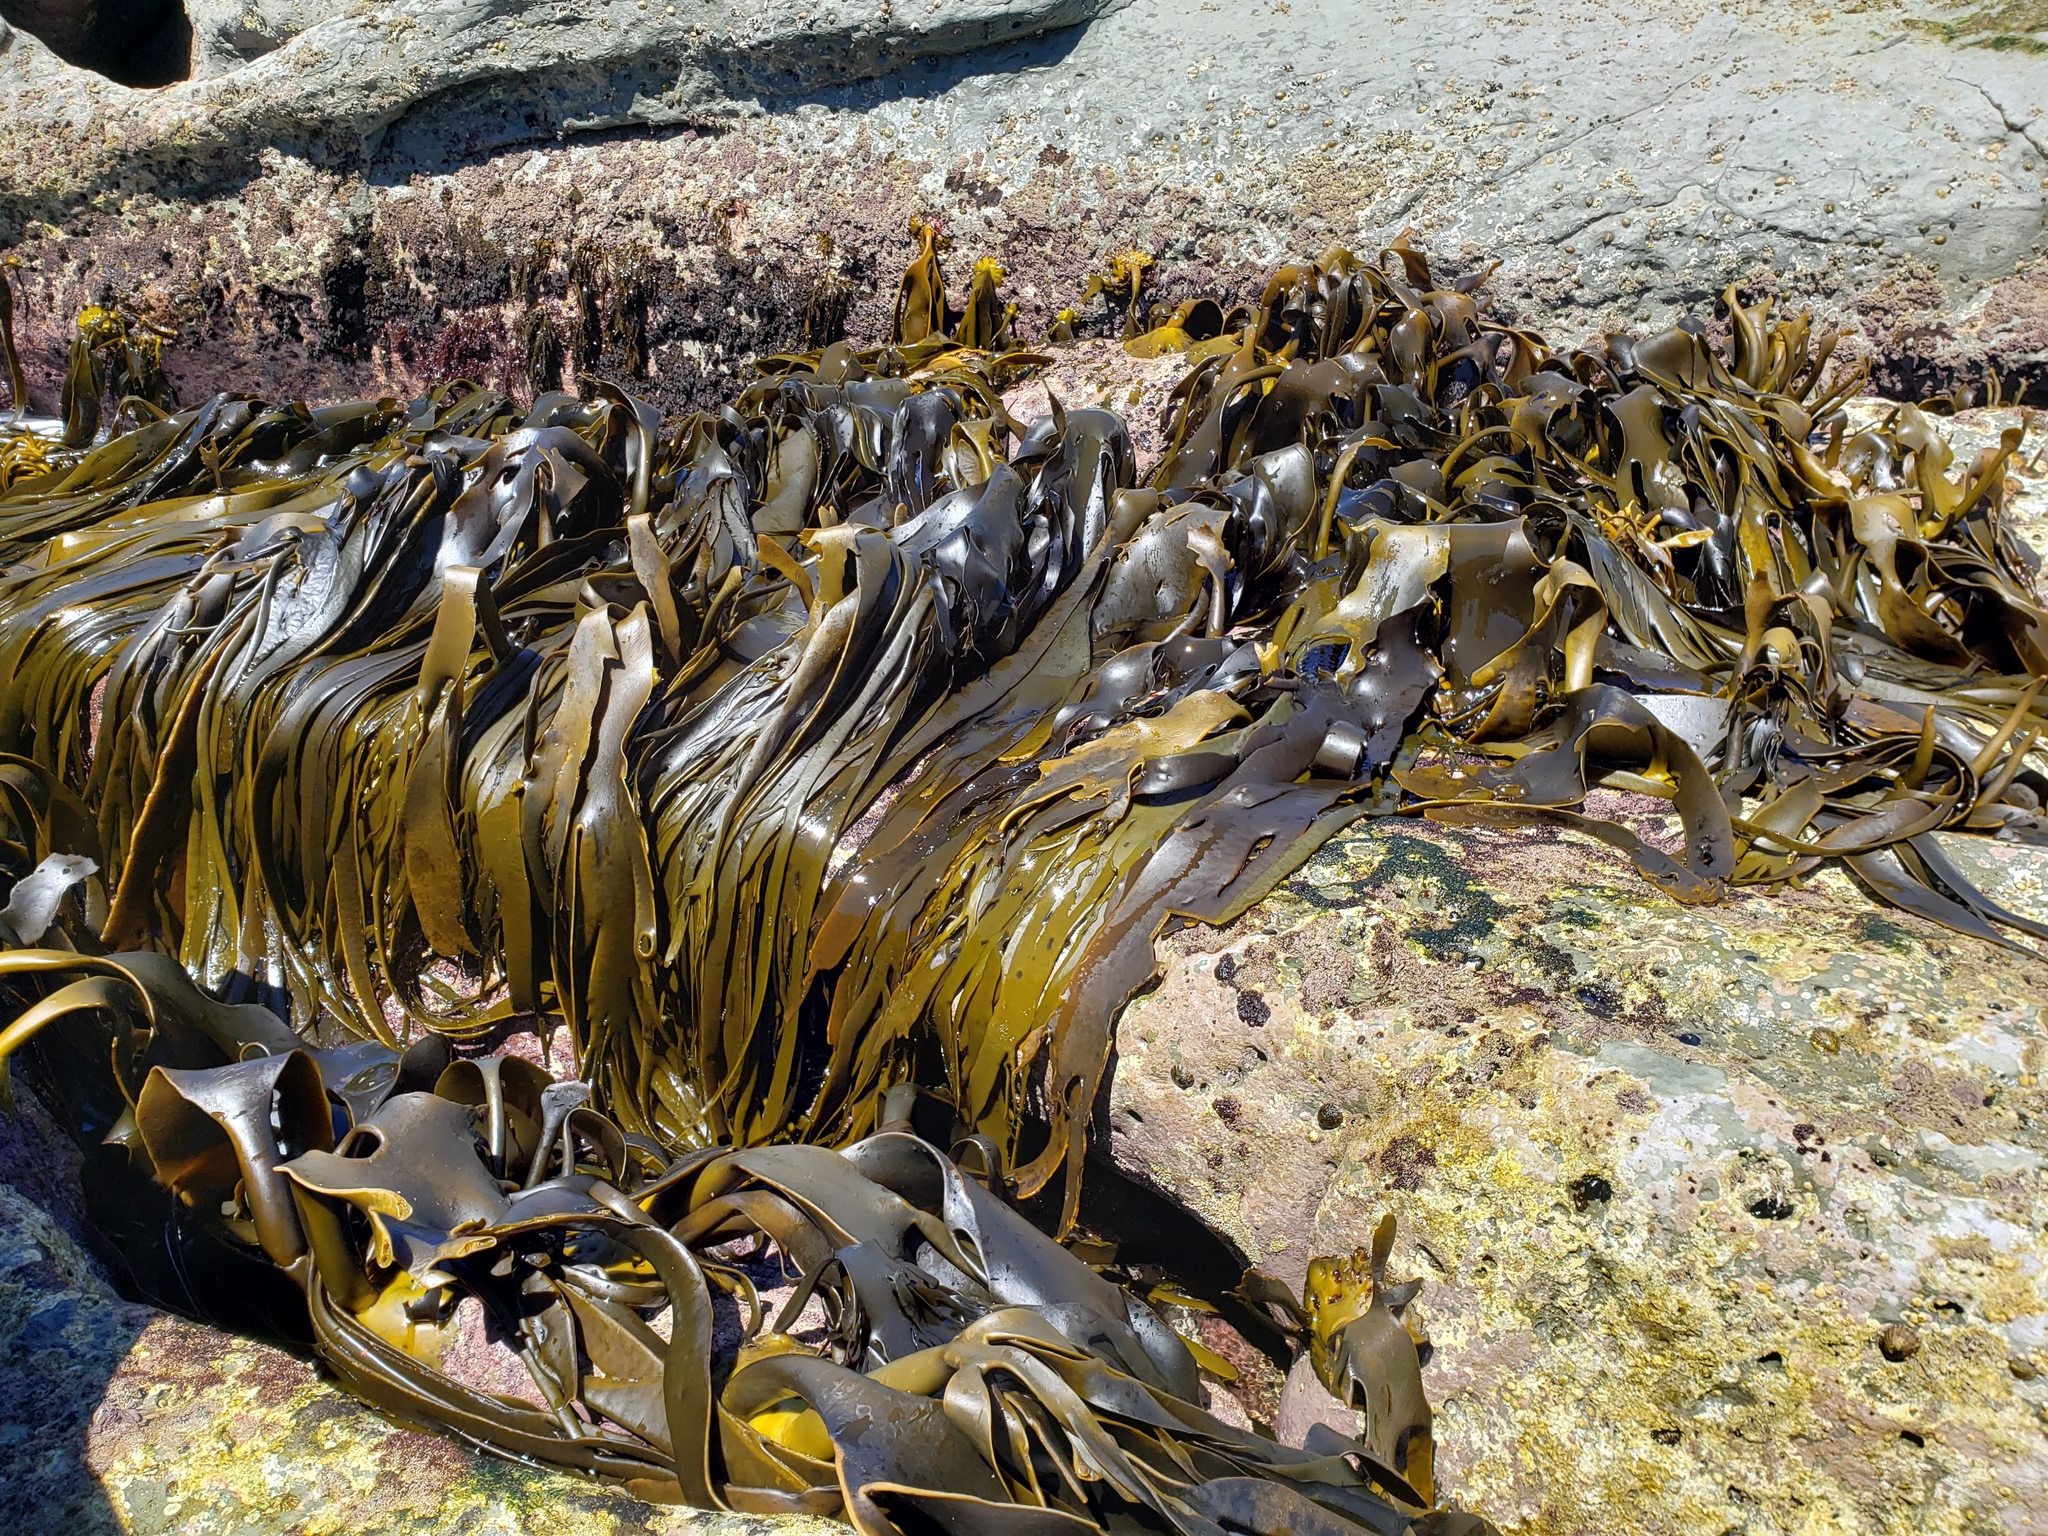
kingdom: Chromista
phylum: Ochrophyta
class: Phaeophyceae
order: Fucales
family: Durvillaeaceae
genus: Durvillaea
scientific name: Durvillaea antarctica
